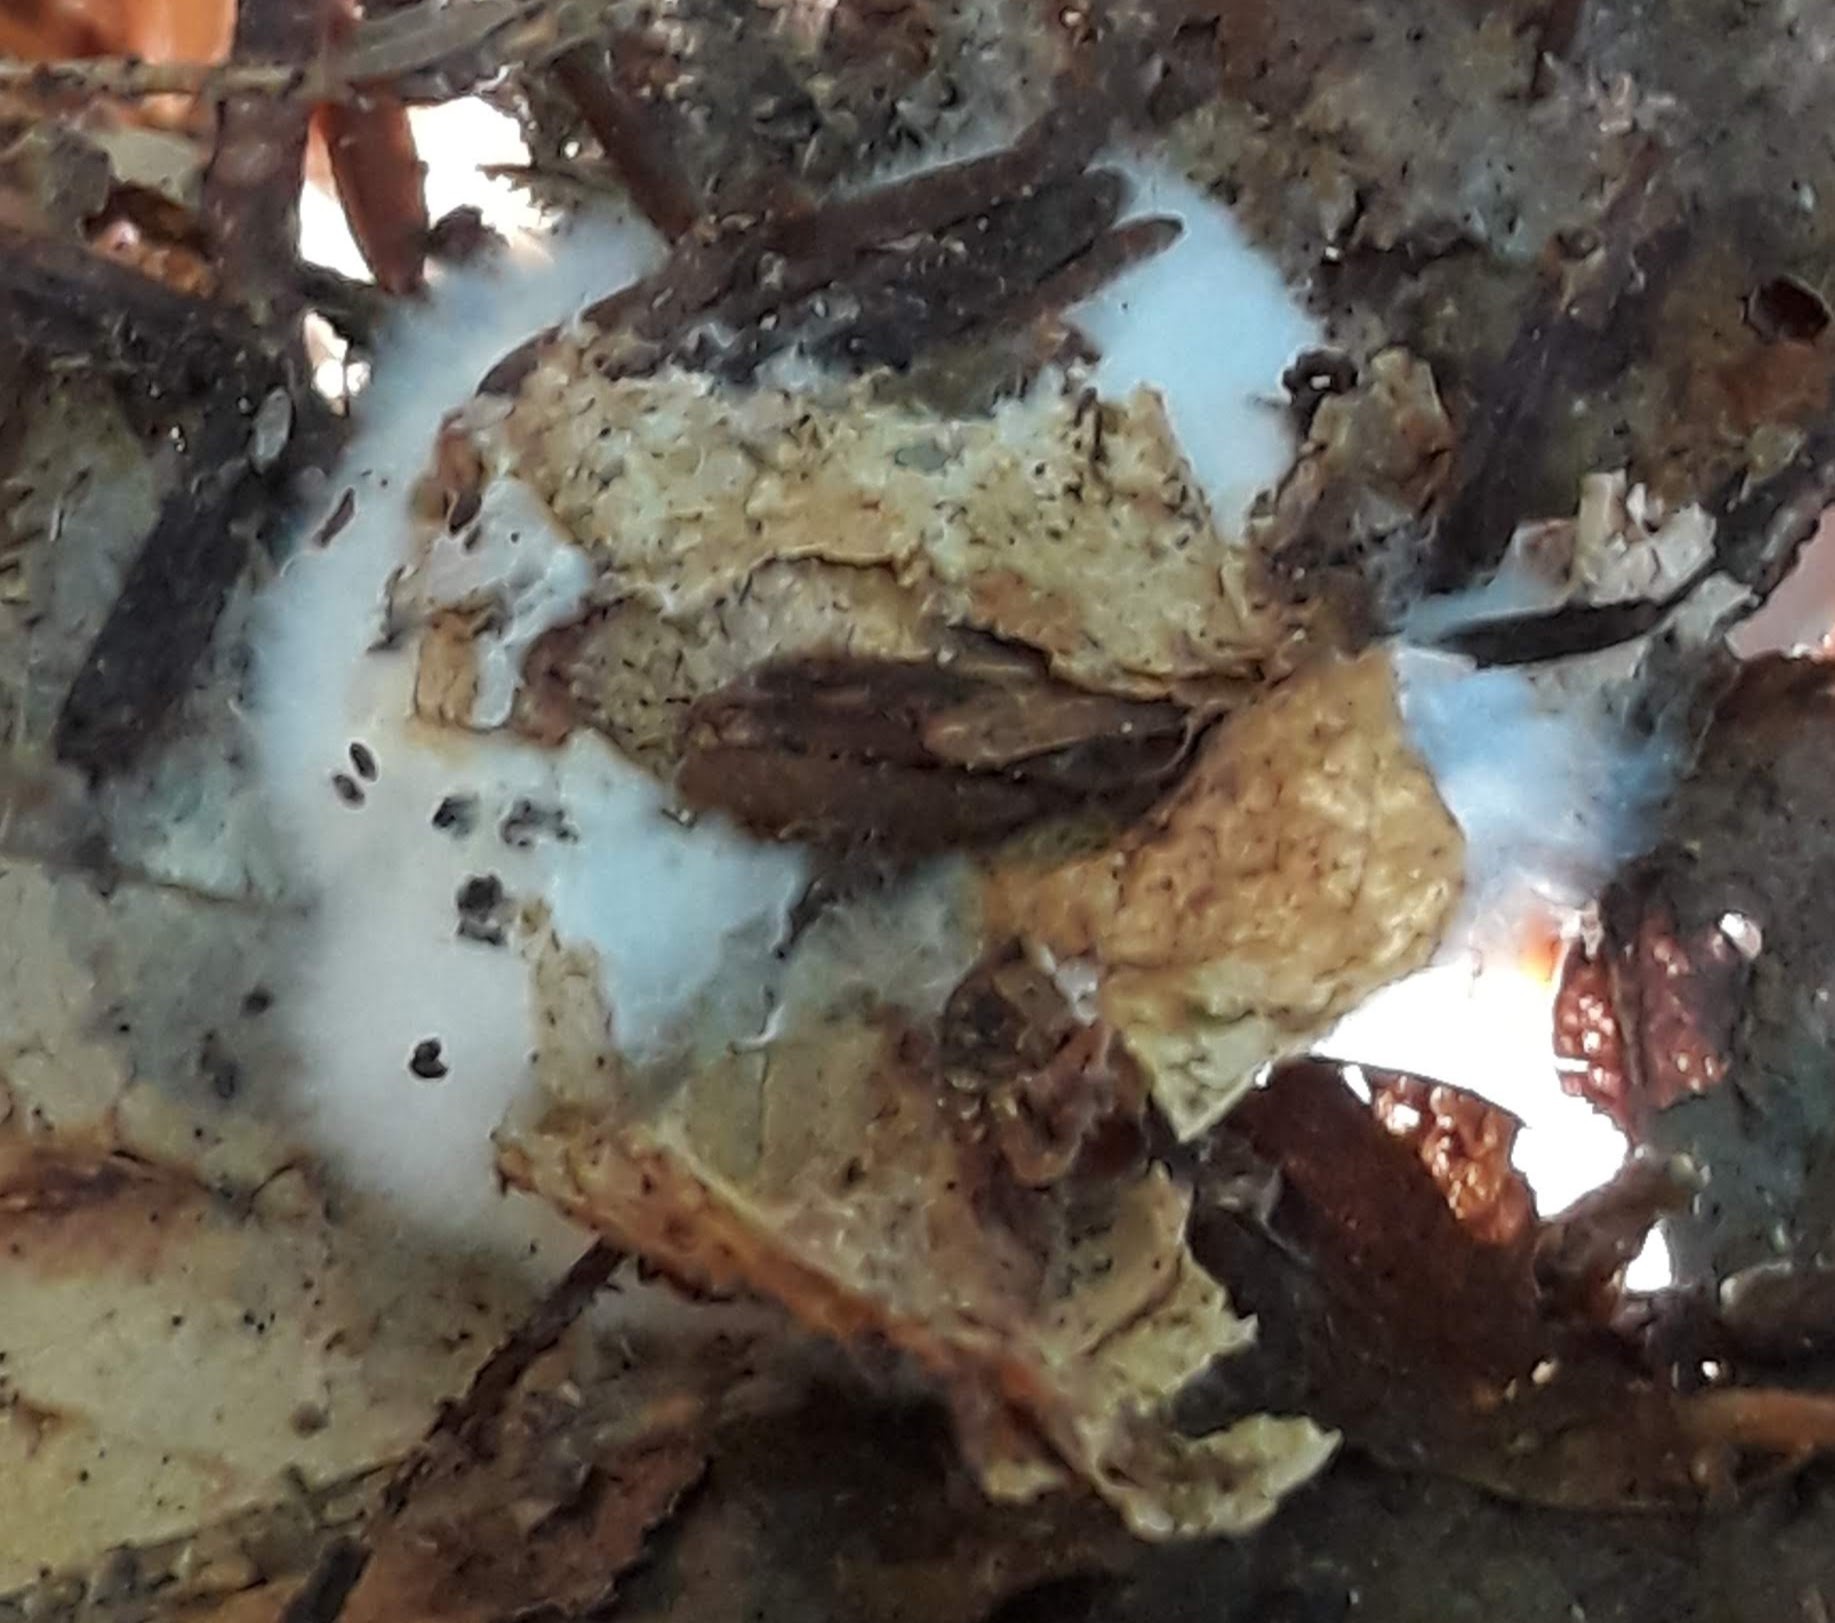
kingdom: Fungi
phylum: Basidiomycota
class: Agaricomycetes
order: Agaricales
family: Hygrophoraceae
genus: Ampulloclitocybe
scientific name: Ampulloclitocybe clavipes
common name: Club foot
